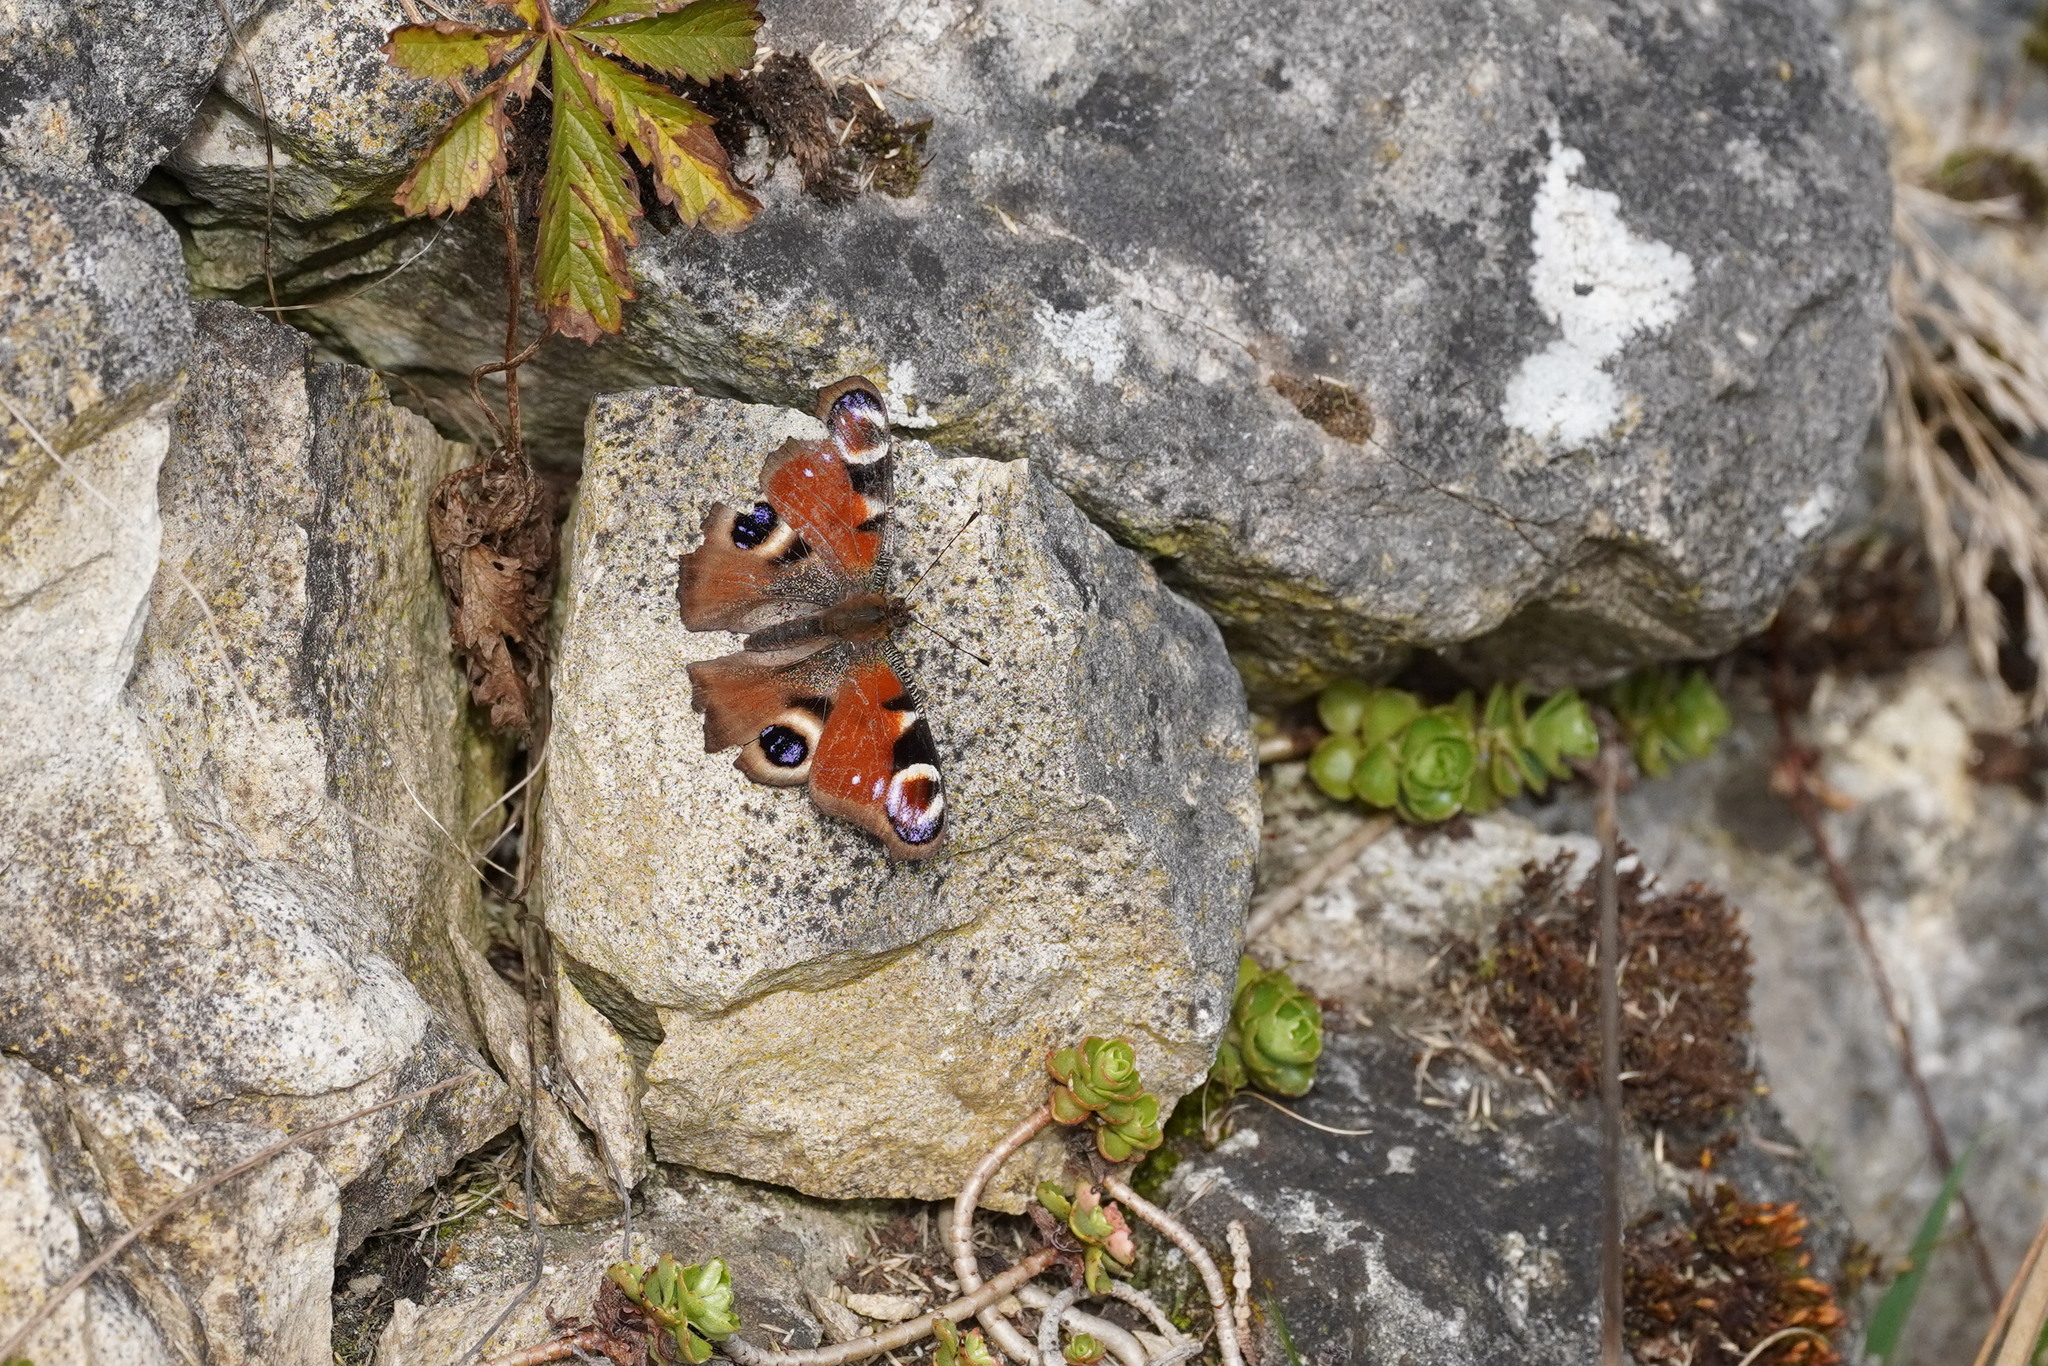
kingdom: Animalia
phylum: Arthropoda
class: Insecta
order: Lepidoptera
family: Nymphalidae
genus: Aglais
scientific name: Aglais io
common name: Peacock
